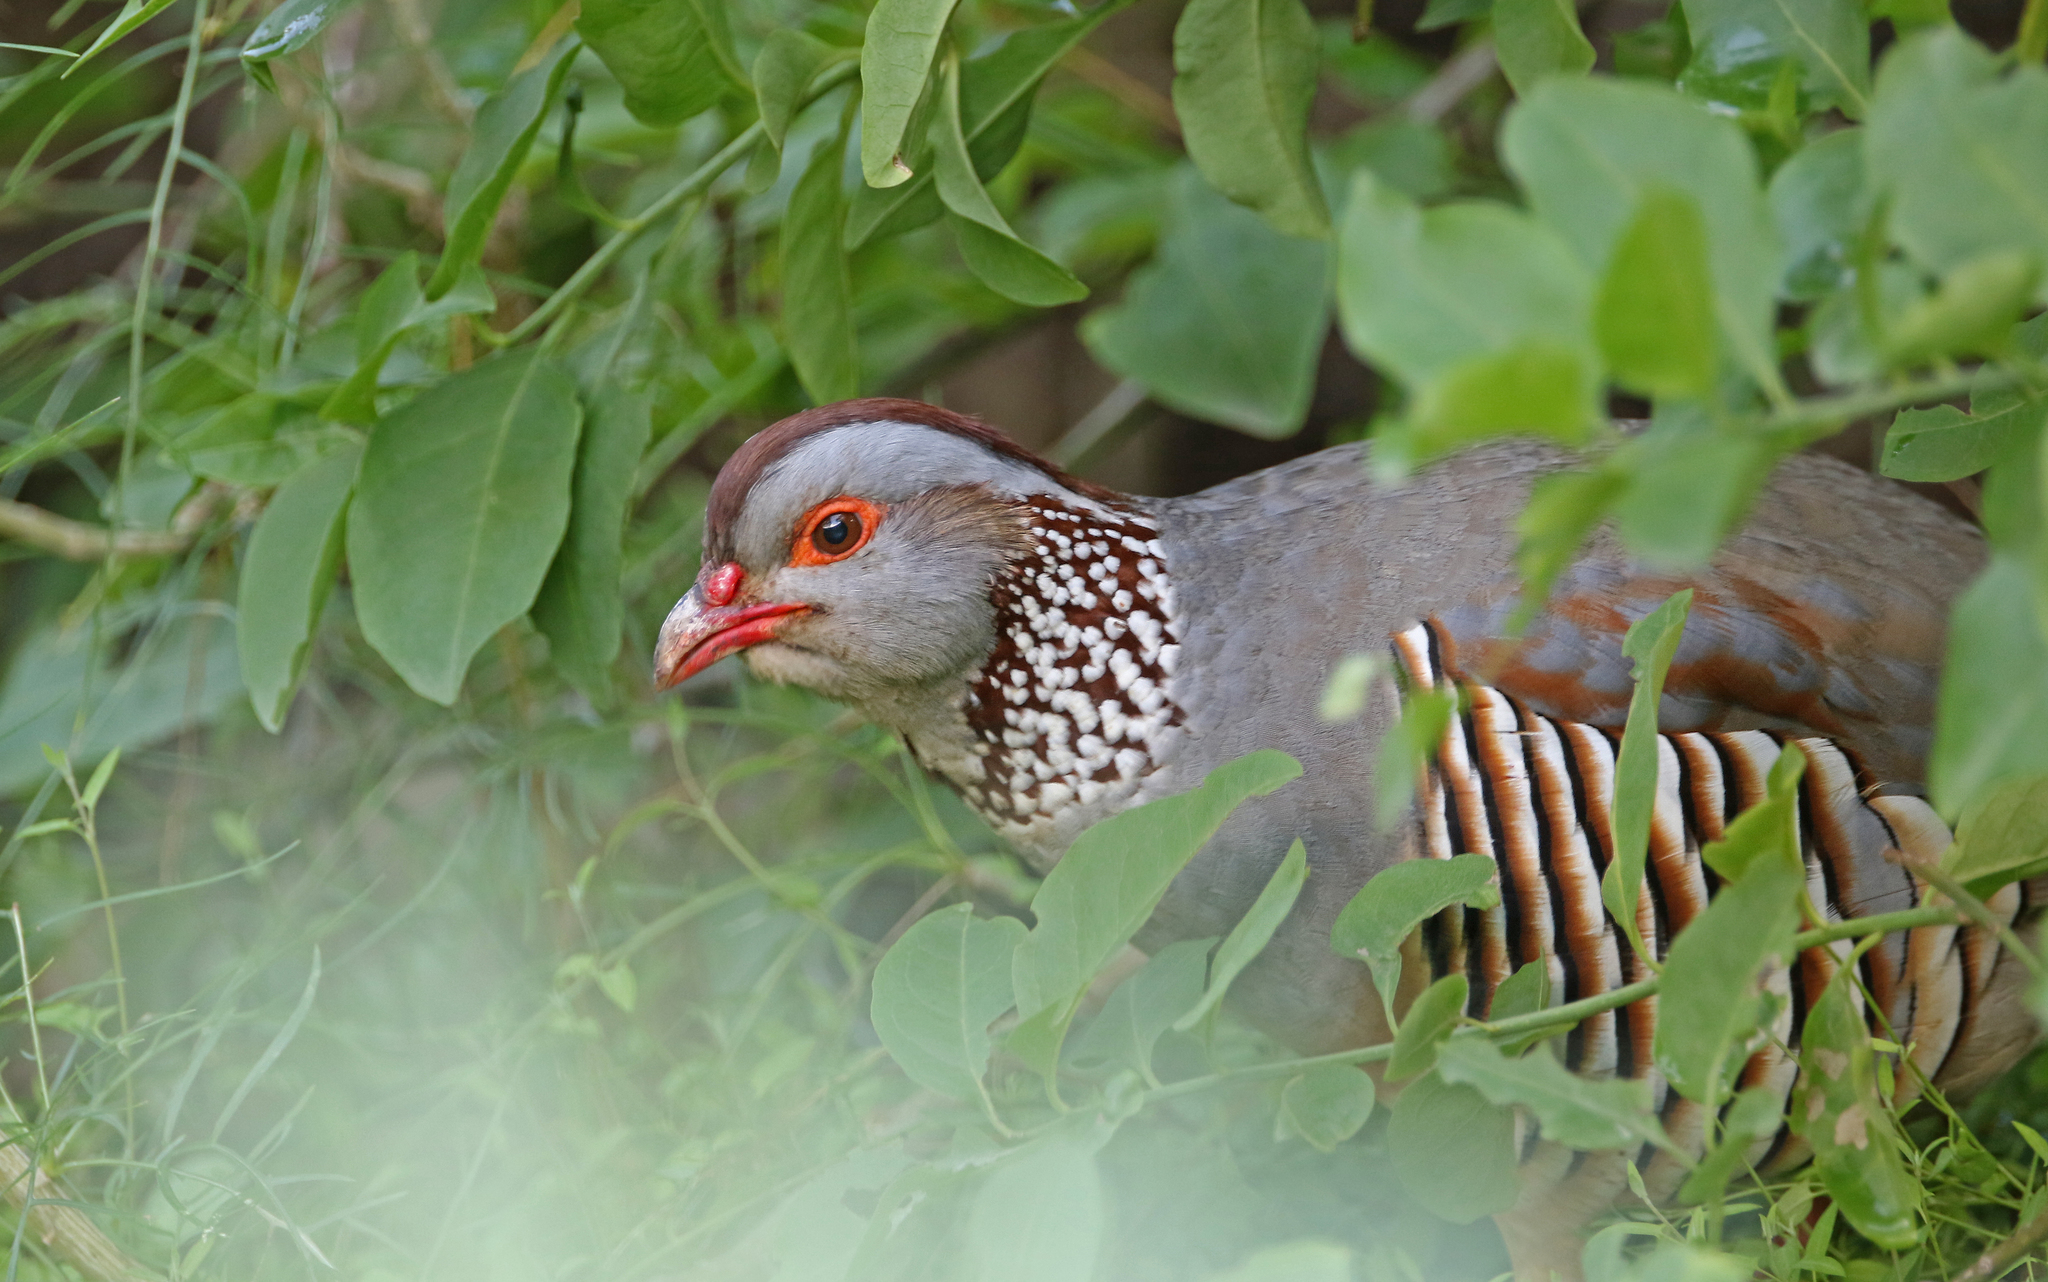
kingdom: Animalia
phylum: Chordata
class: Aves
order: Galliformes
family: Phasianidae
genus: Alectoris
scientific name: Alectoris barbara
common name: Barbary partridge
